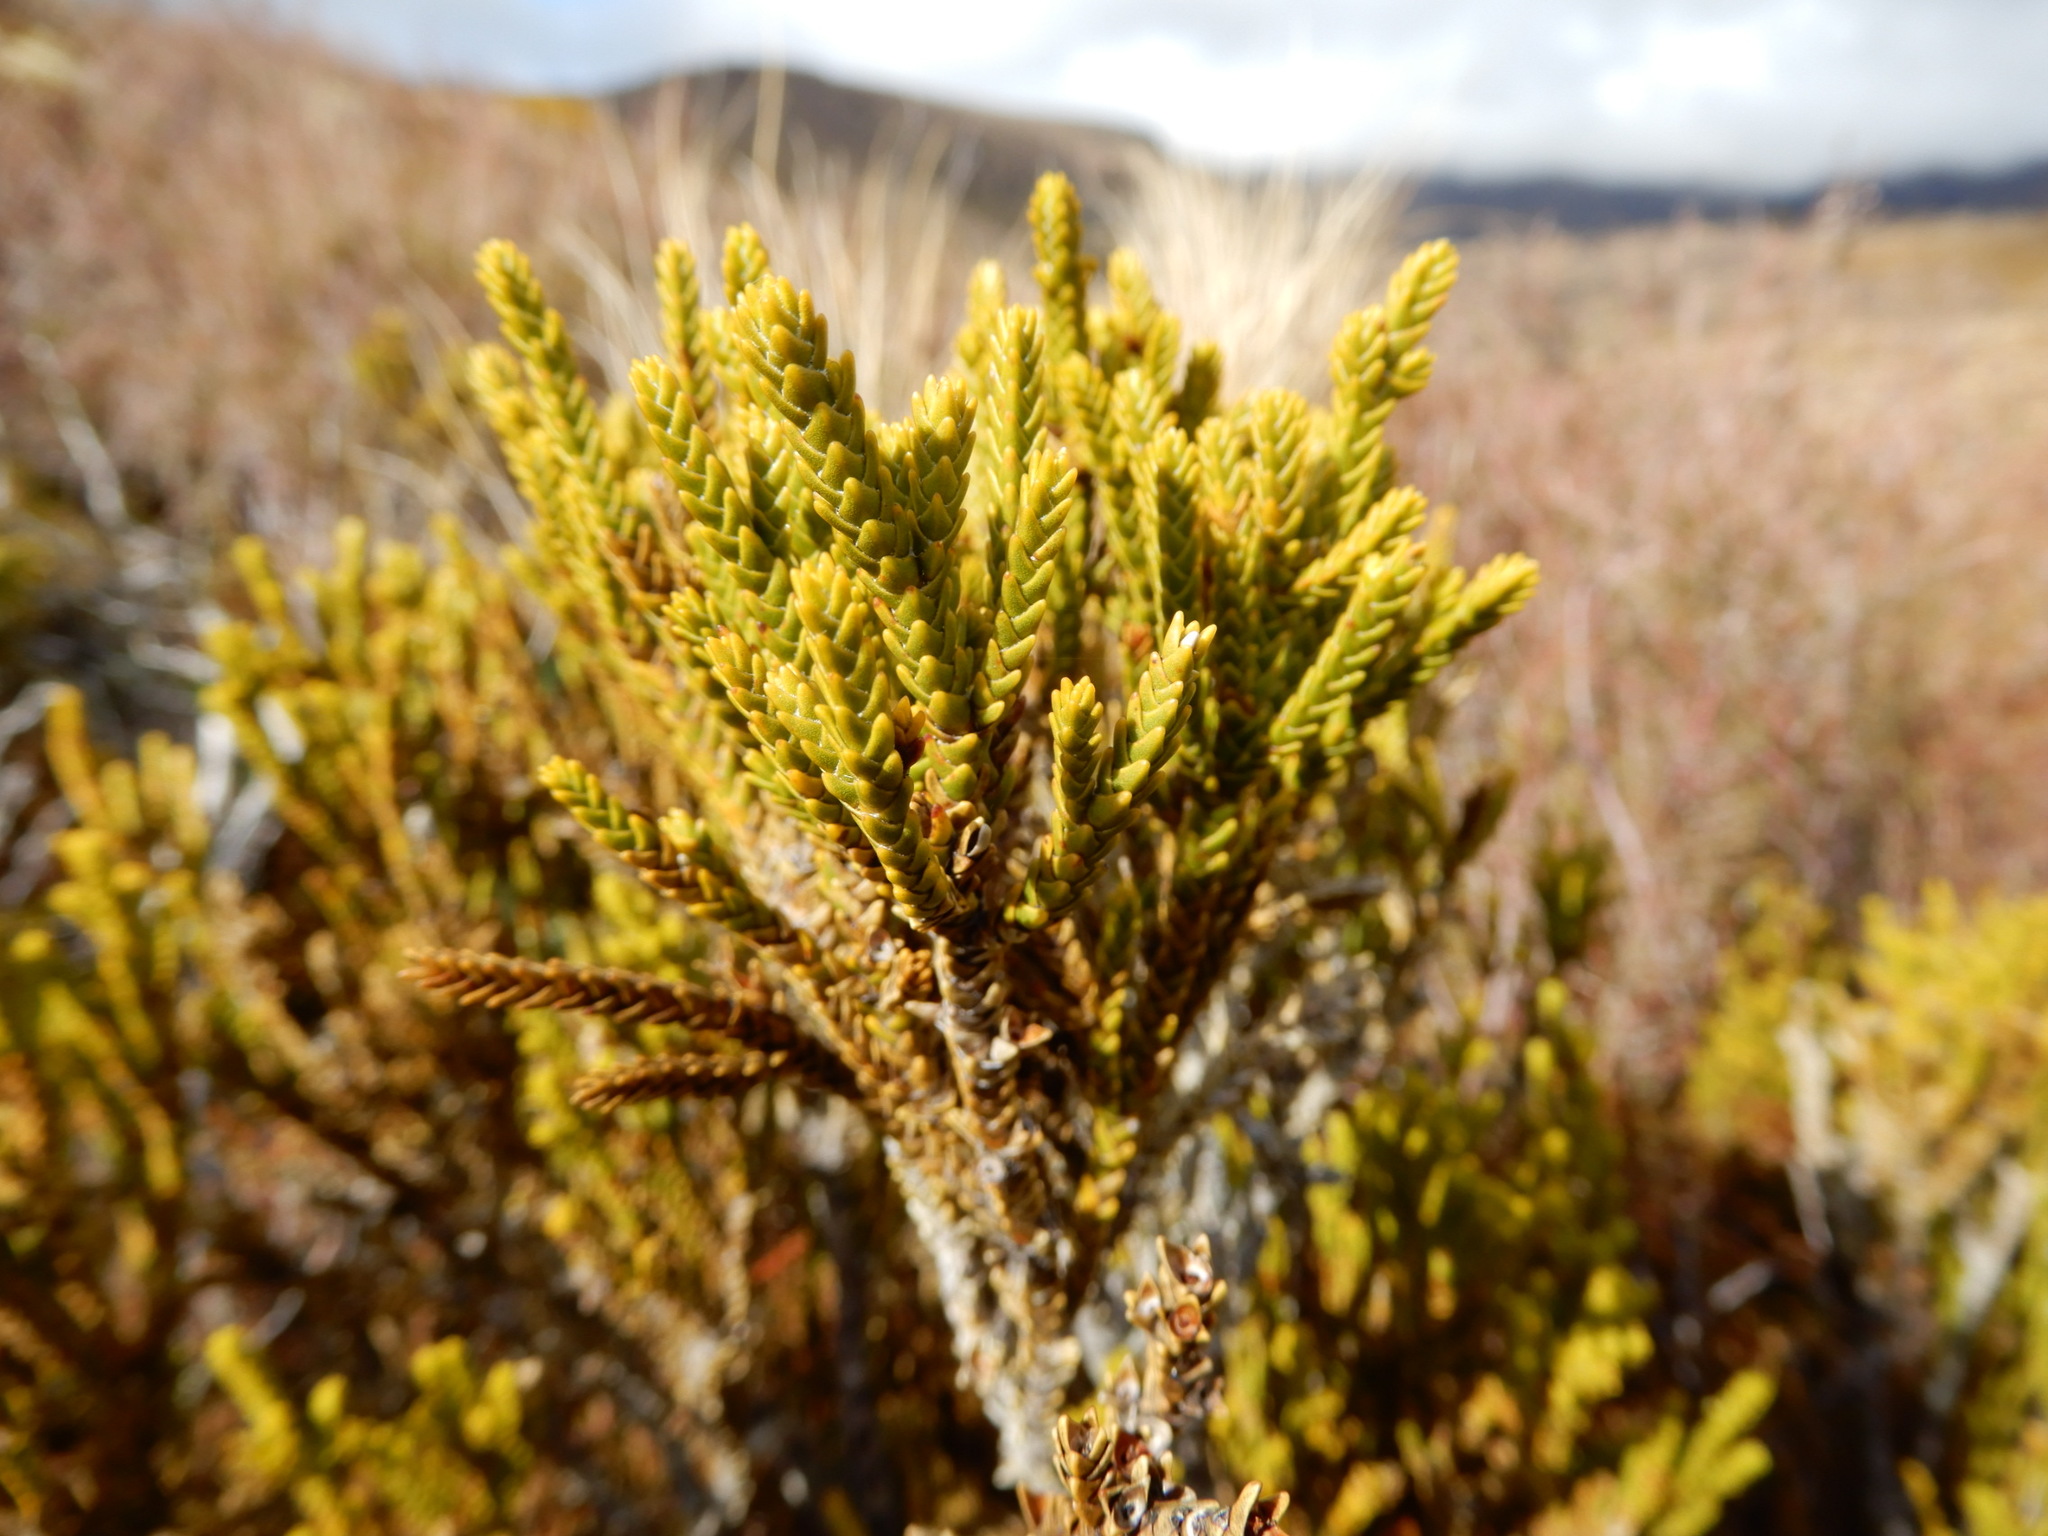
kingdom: Plantae
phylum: Tracheophyta
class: Magnoliopsida
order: Lamiales
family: Plantaginaceae
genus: Veronica
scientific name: Veronica tetragona
